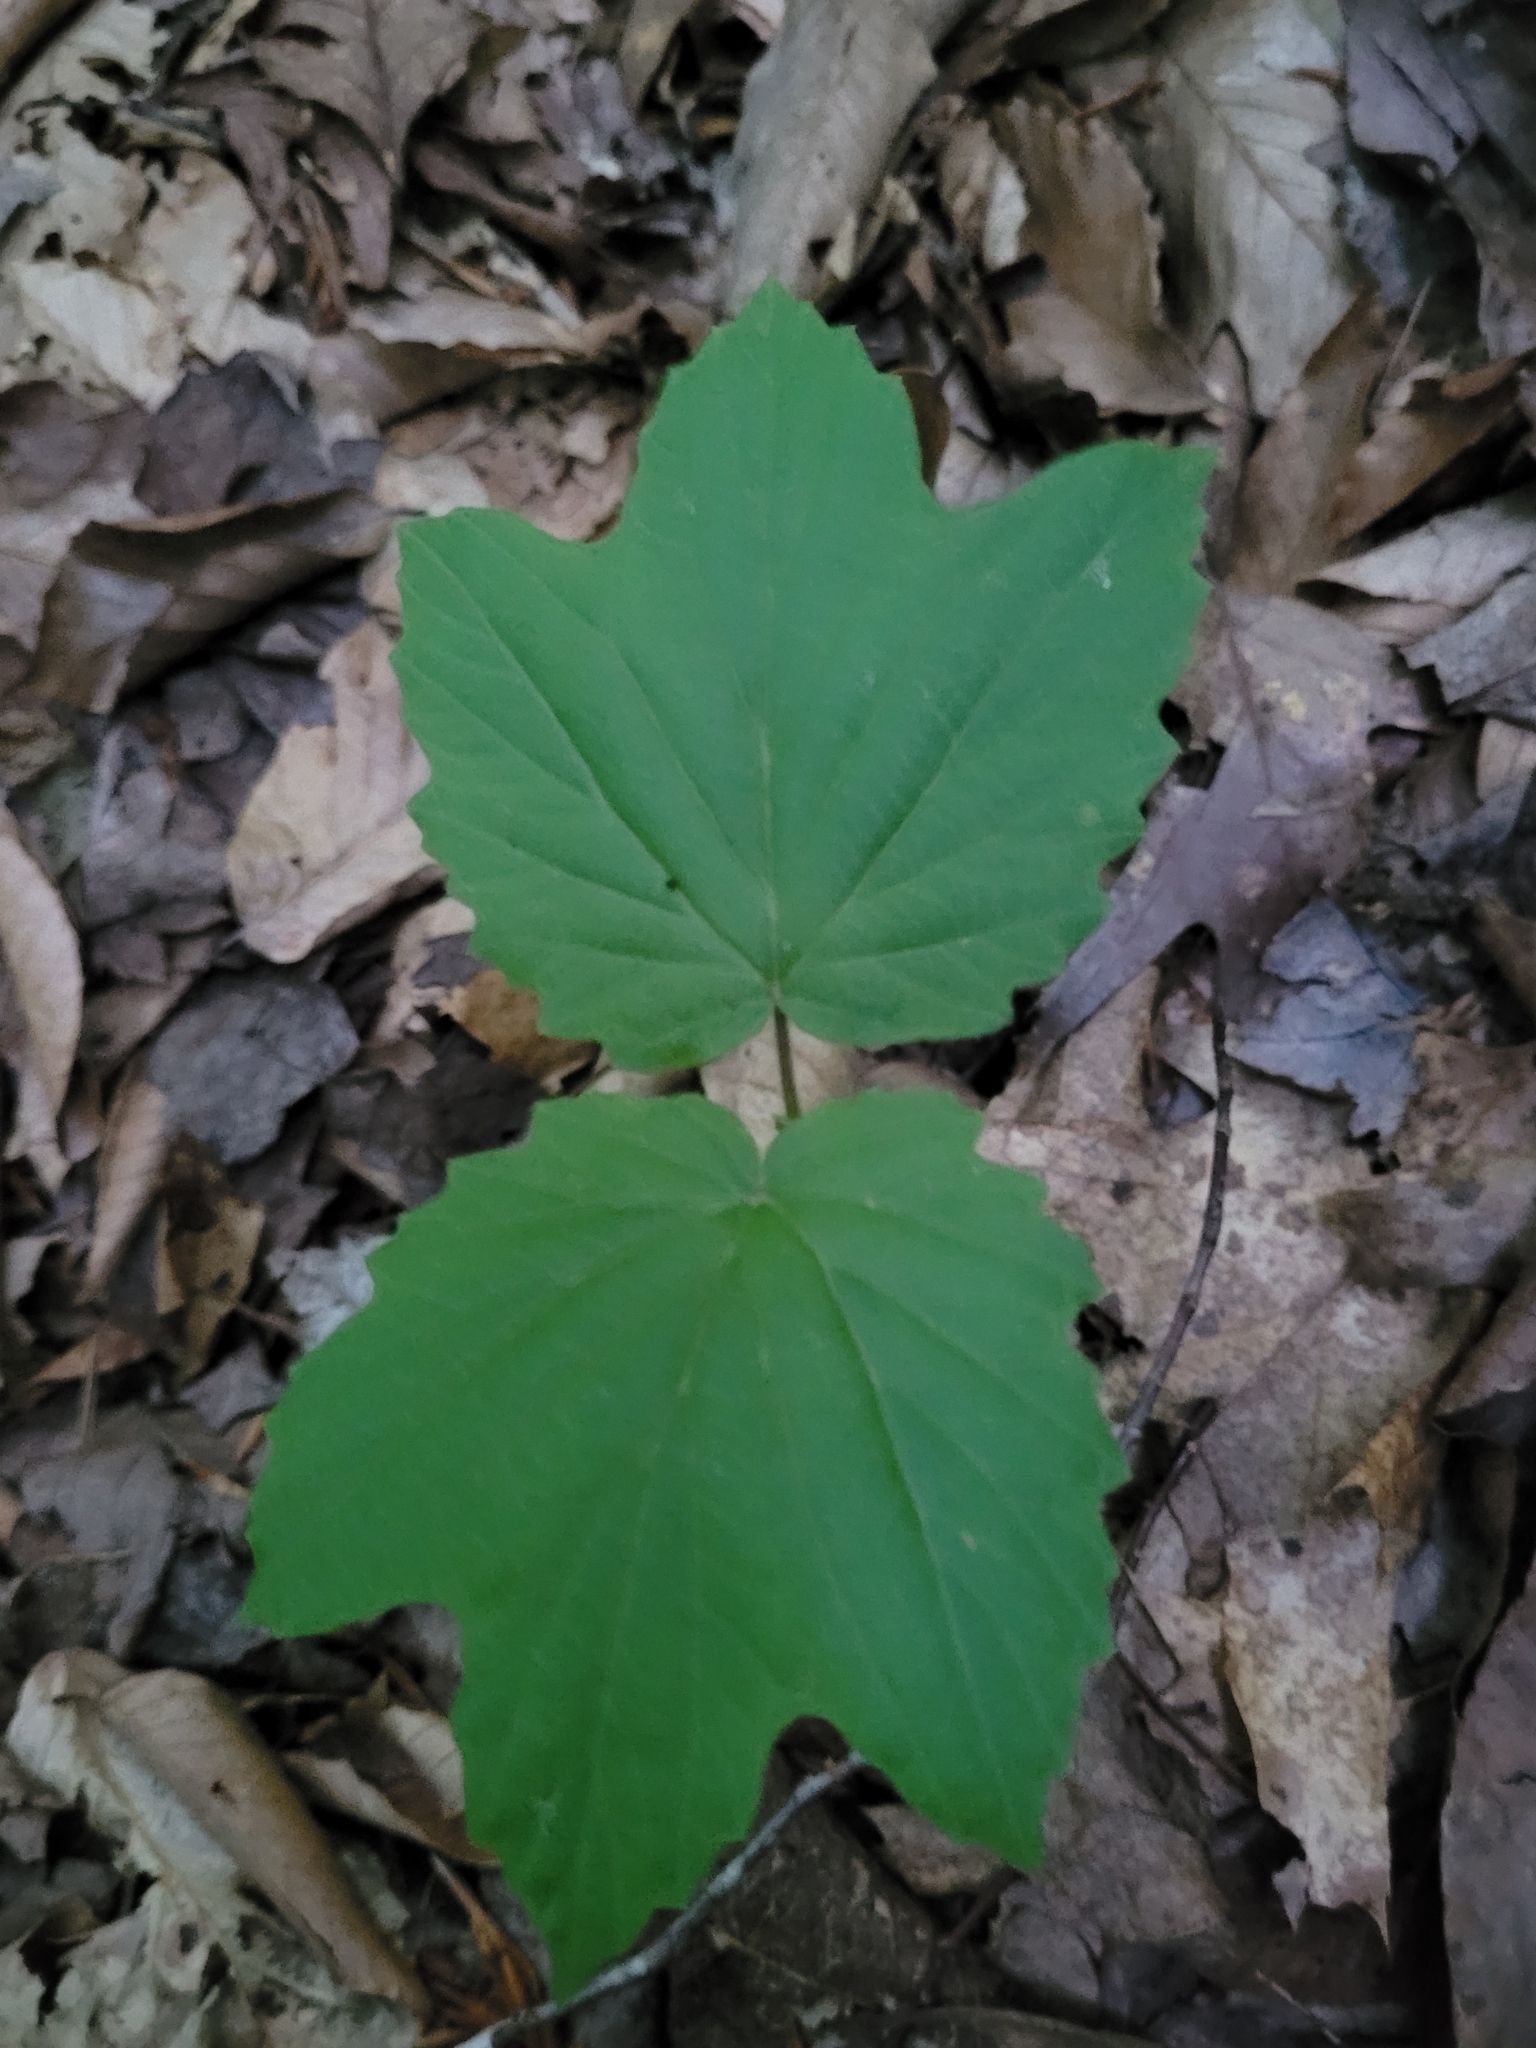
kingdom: Plantae
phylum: Tracheophyta
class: Magnoliopsida
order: Dipsacales
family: Viburnaceae
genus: Viburnum
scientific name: Viburnum acerifolium
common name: Dockmackie
